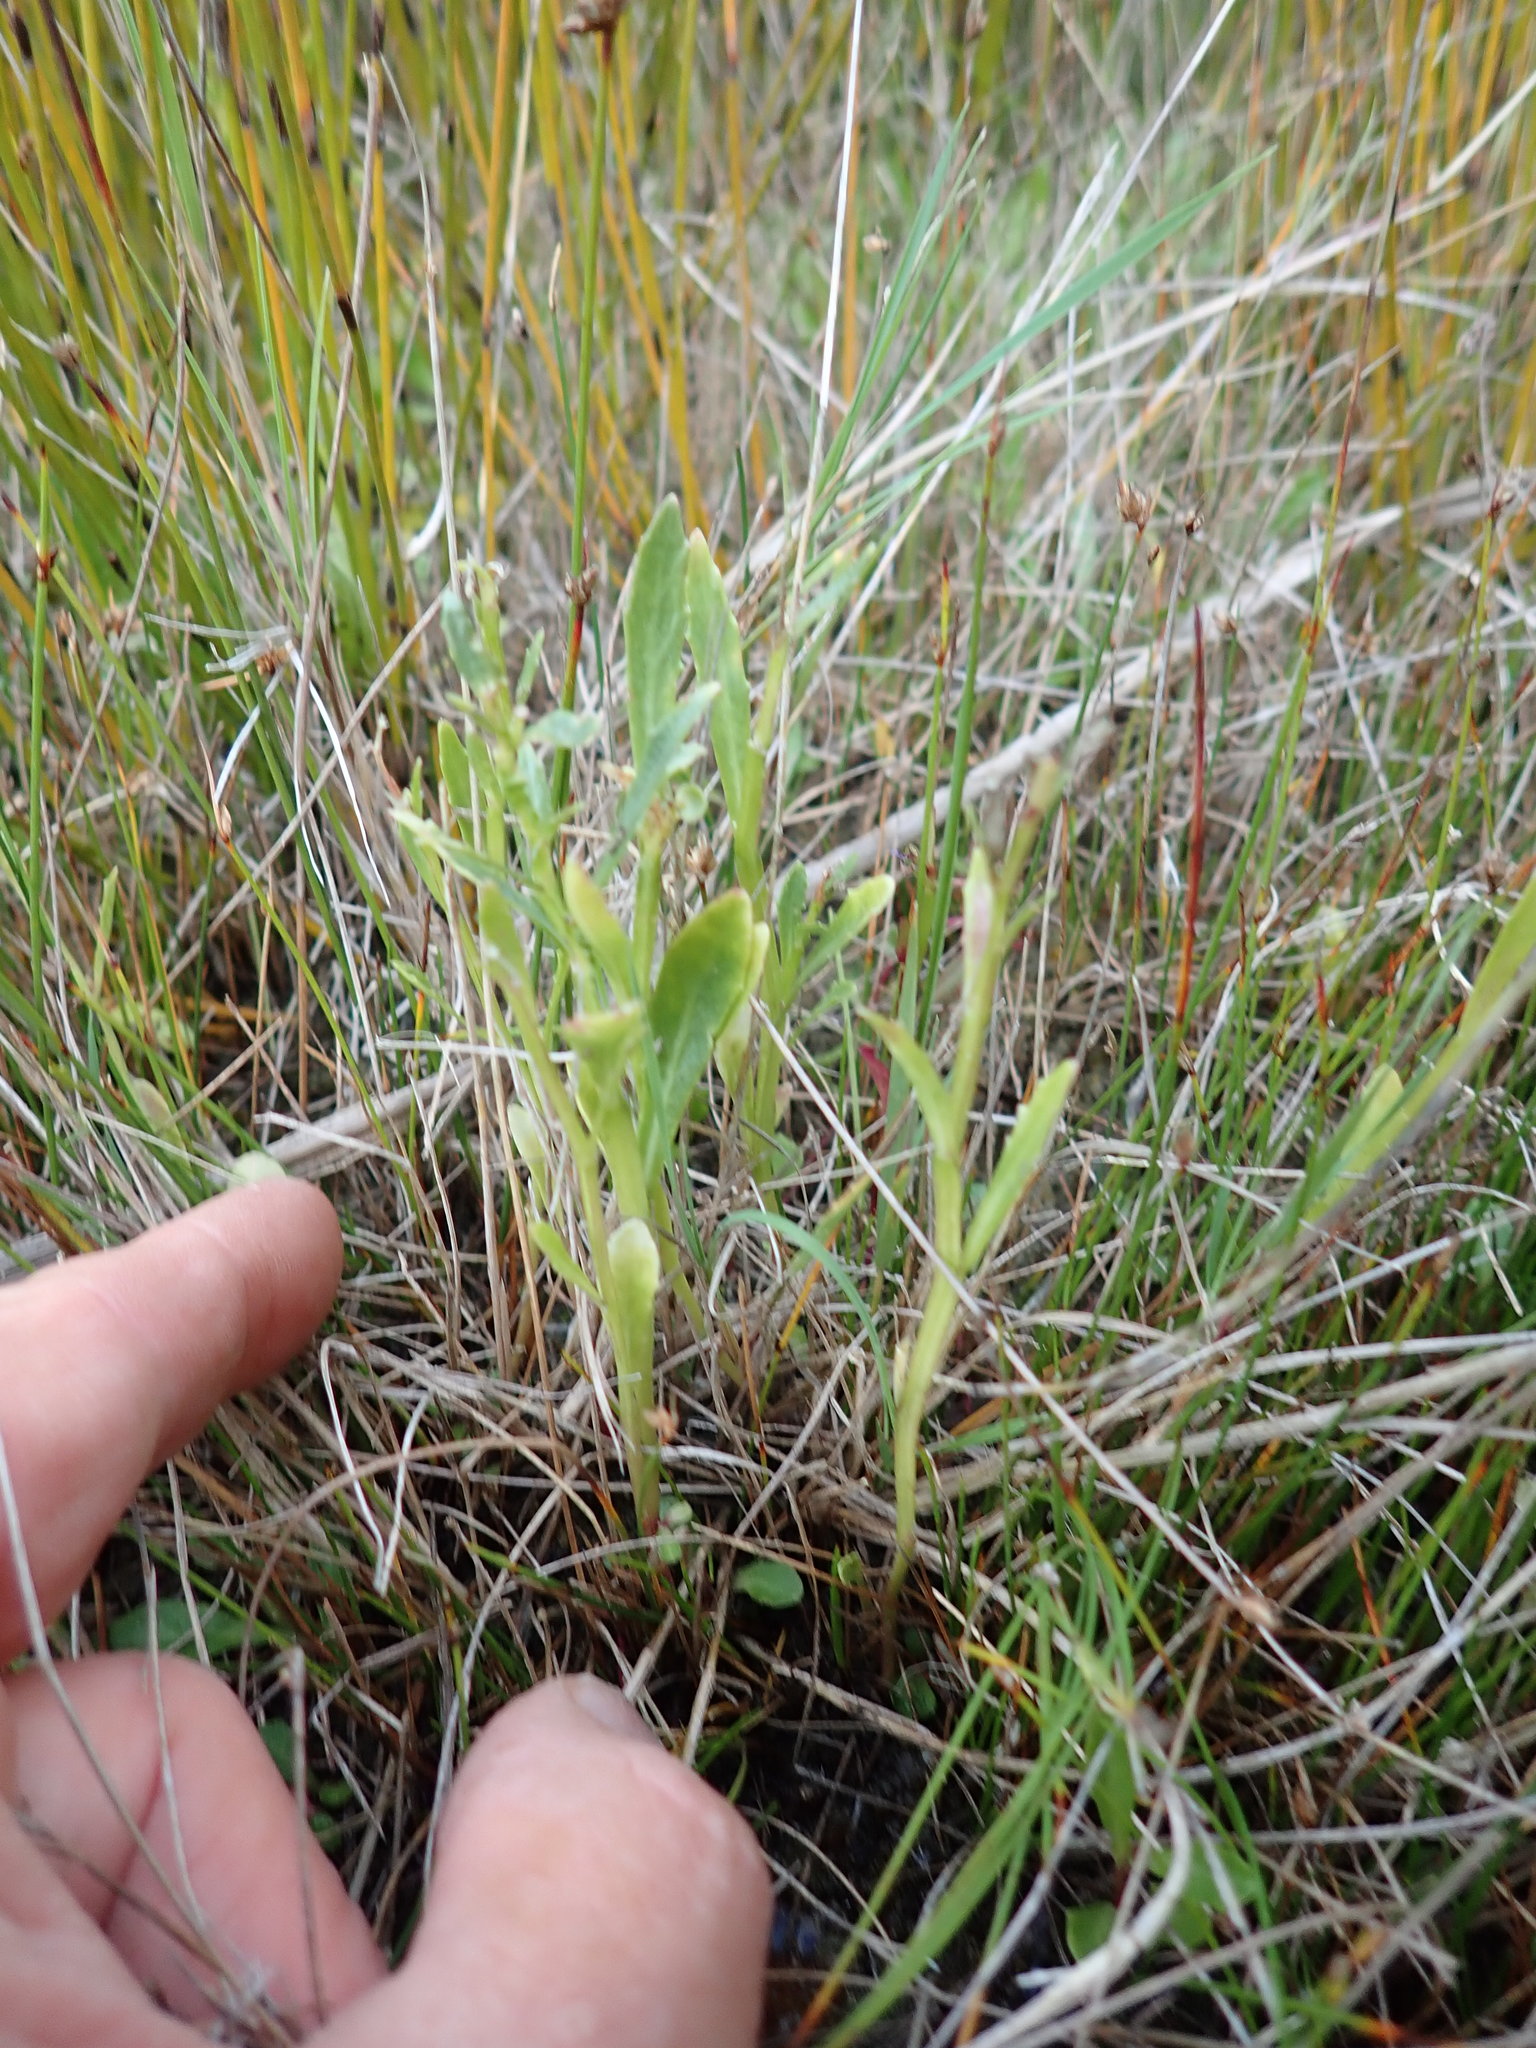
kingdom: Plantae
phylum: Tracheophyta
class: Magnoliopsida
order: Asterales
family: Campanulaceae
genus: Lobelia
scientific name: Lobelia anceps
